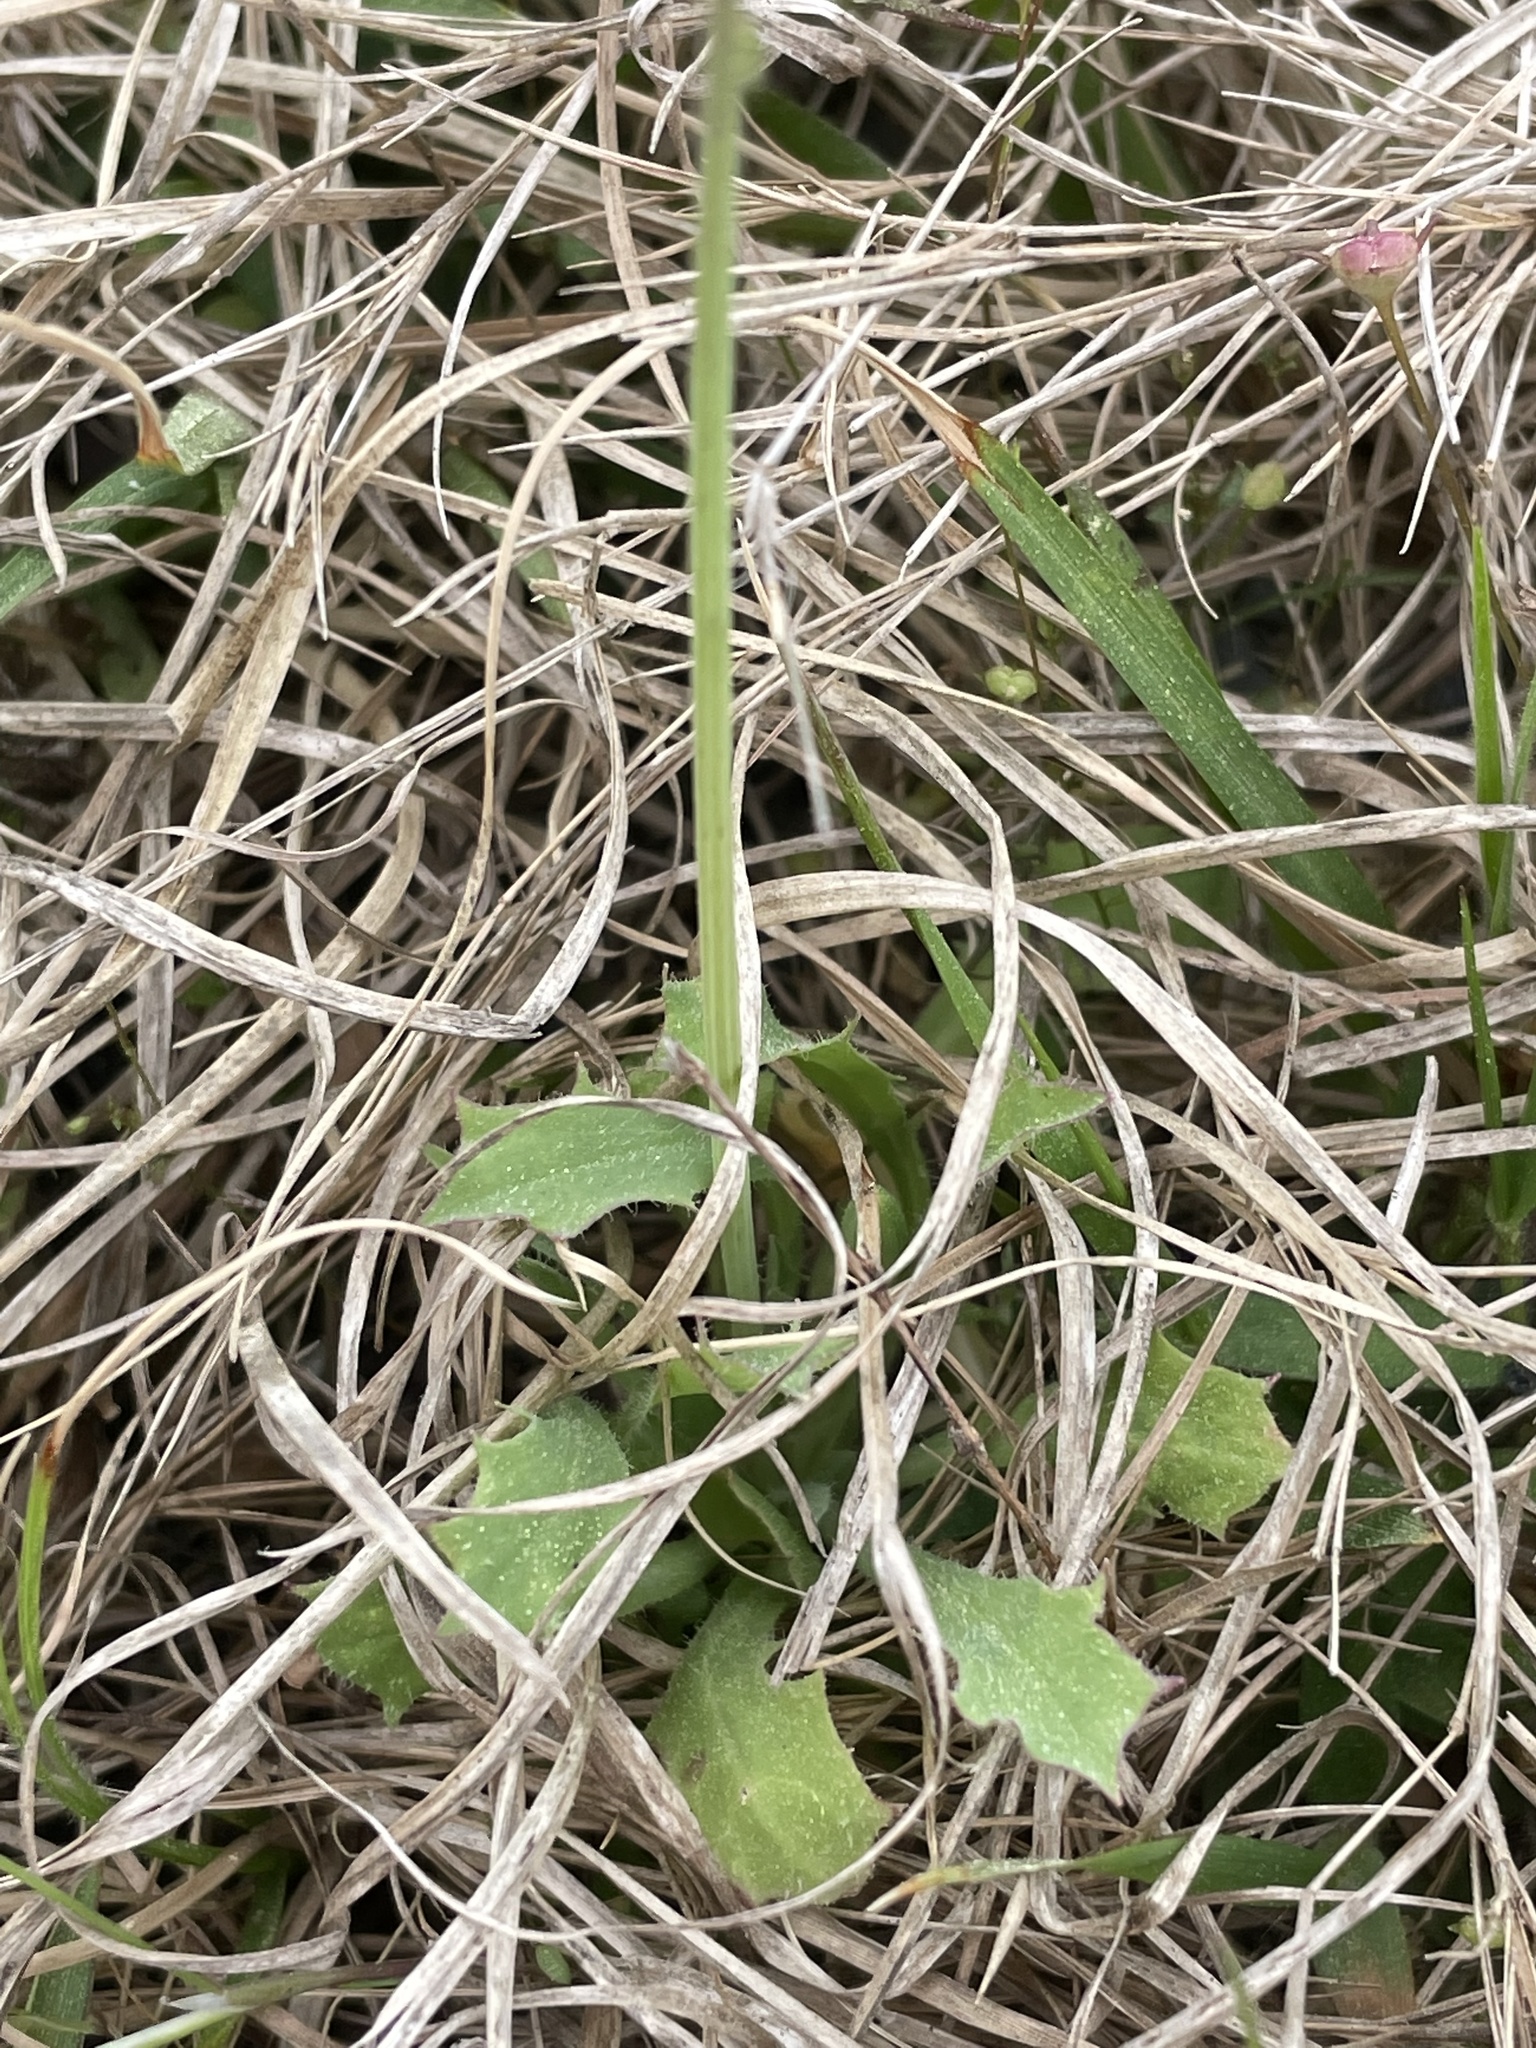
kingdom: Plantae
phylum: Tracheophyta
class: Magnoliopsida
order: Asterales
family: Asteraceae
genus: Krigia
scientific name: Krigia virginica
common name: Virginia dwarf-dandelion
